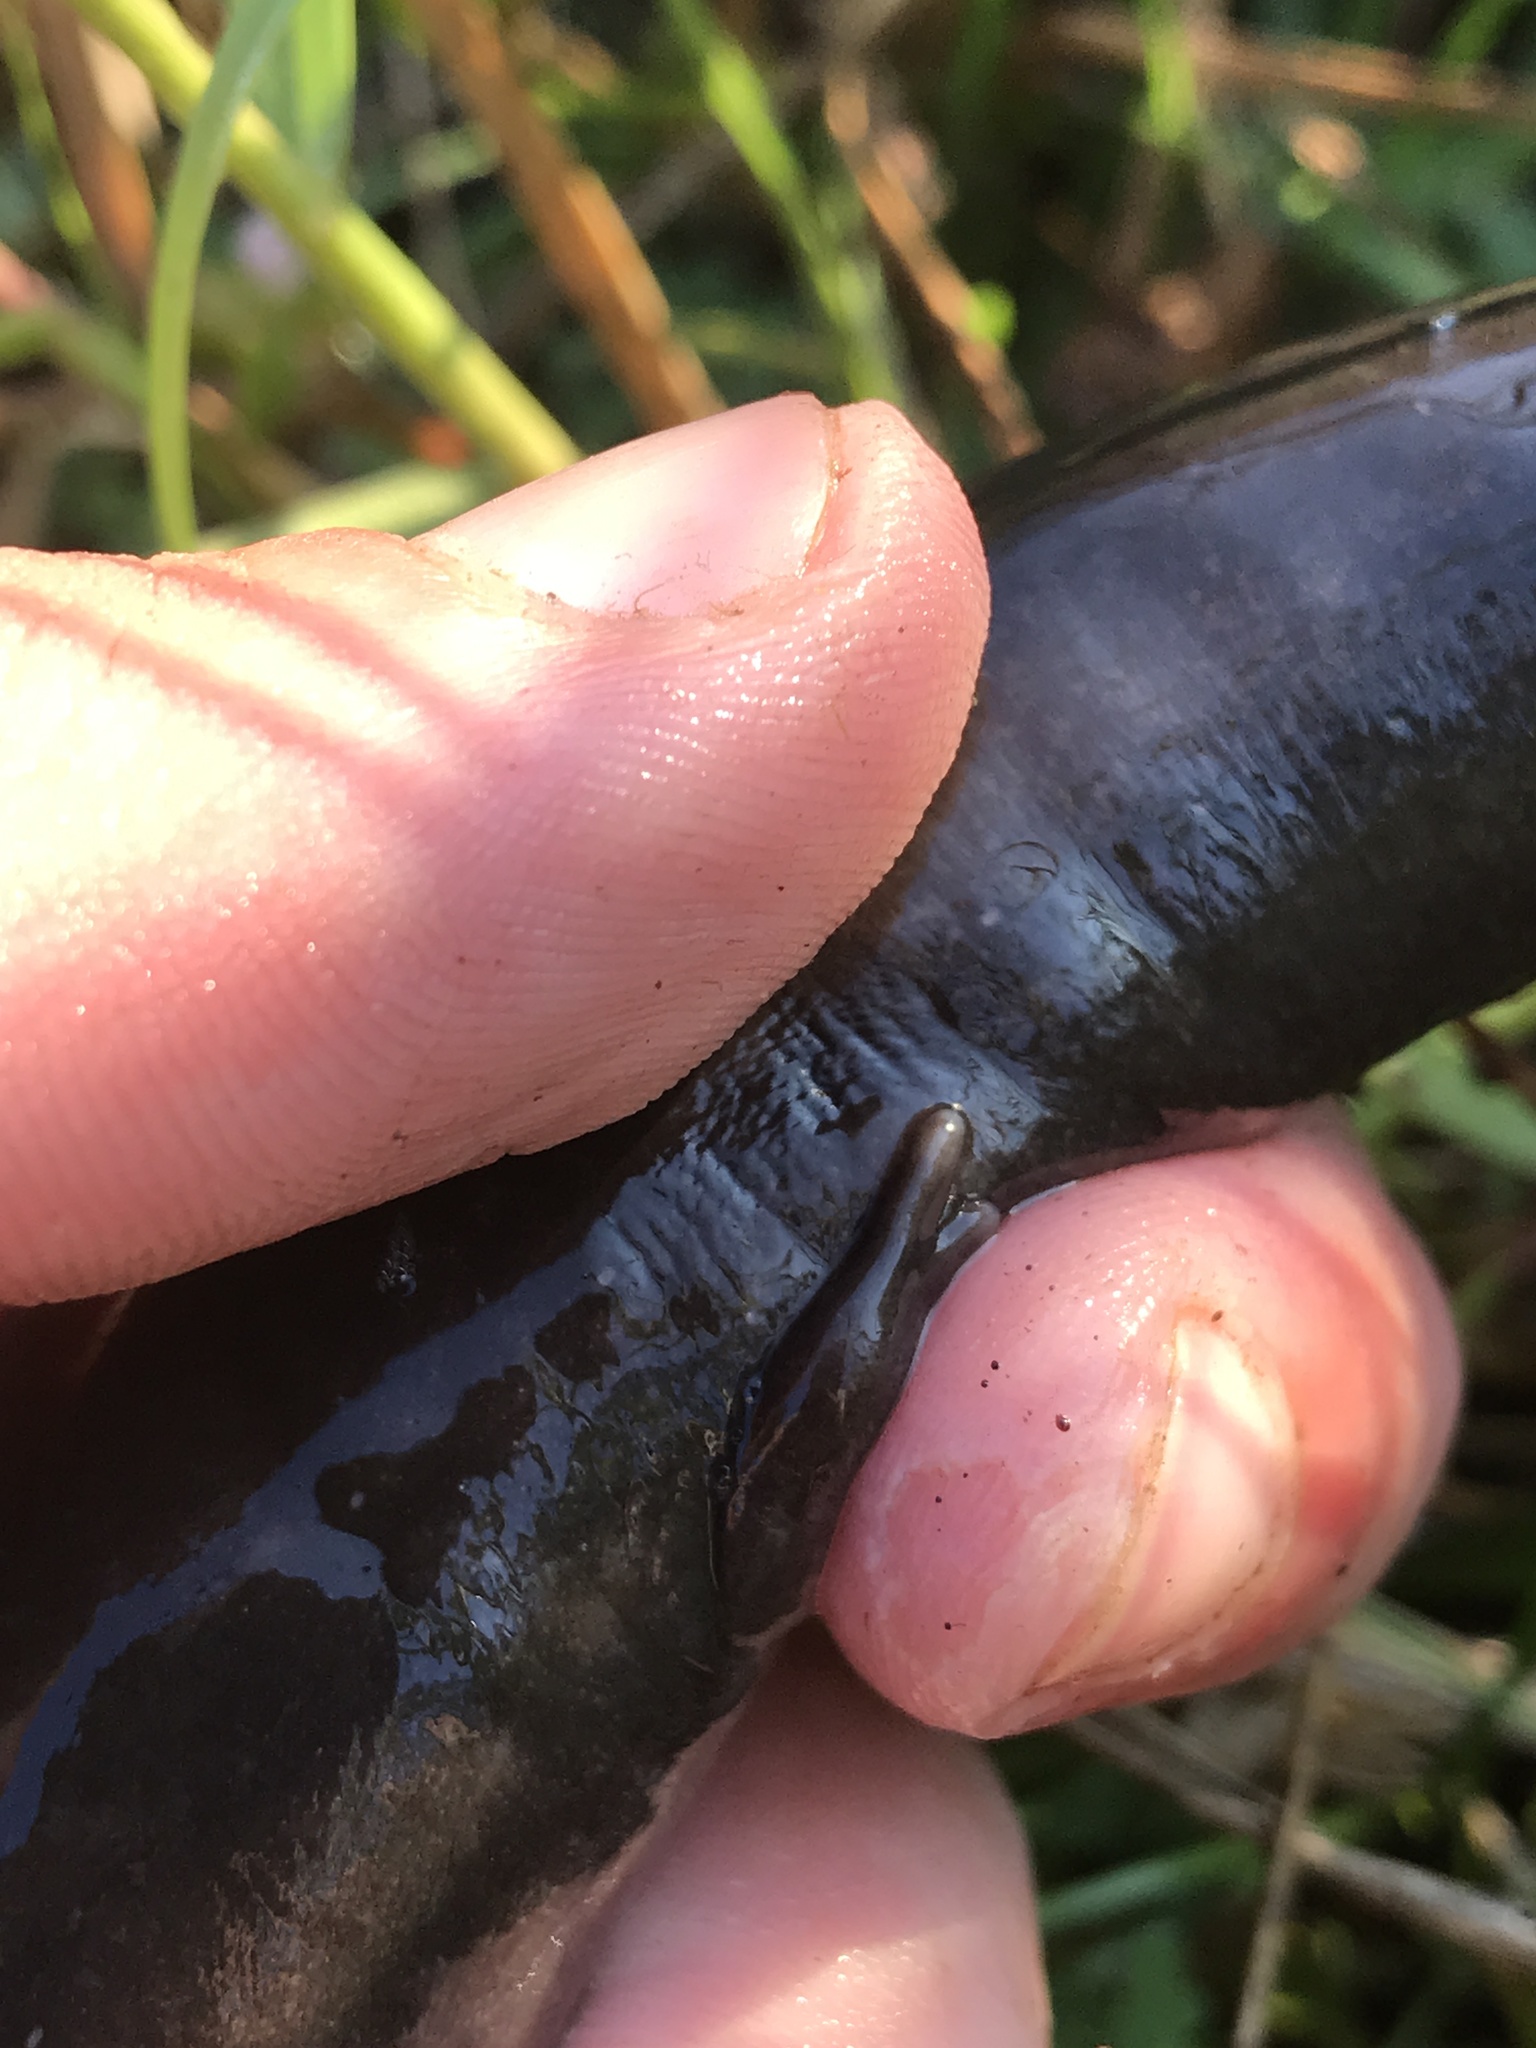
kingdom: Animalia
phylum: Chordata
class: Amphibia
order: Caudata
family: Amphiumidae
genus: Amphiuma
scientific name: Amphiuma means
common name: Two-toed amphiuma
